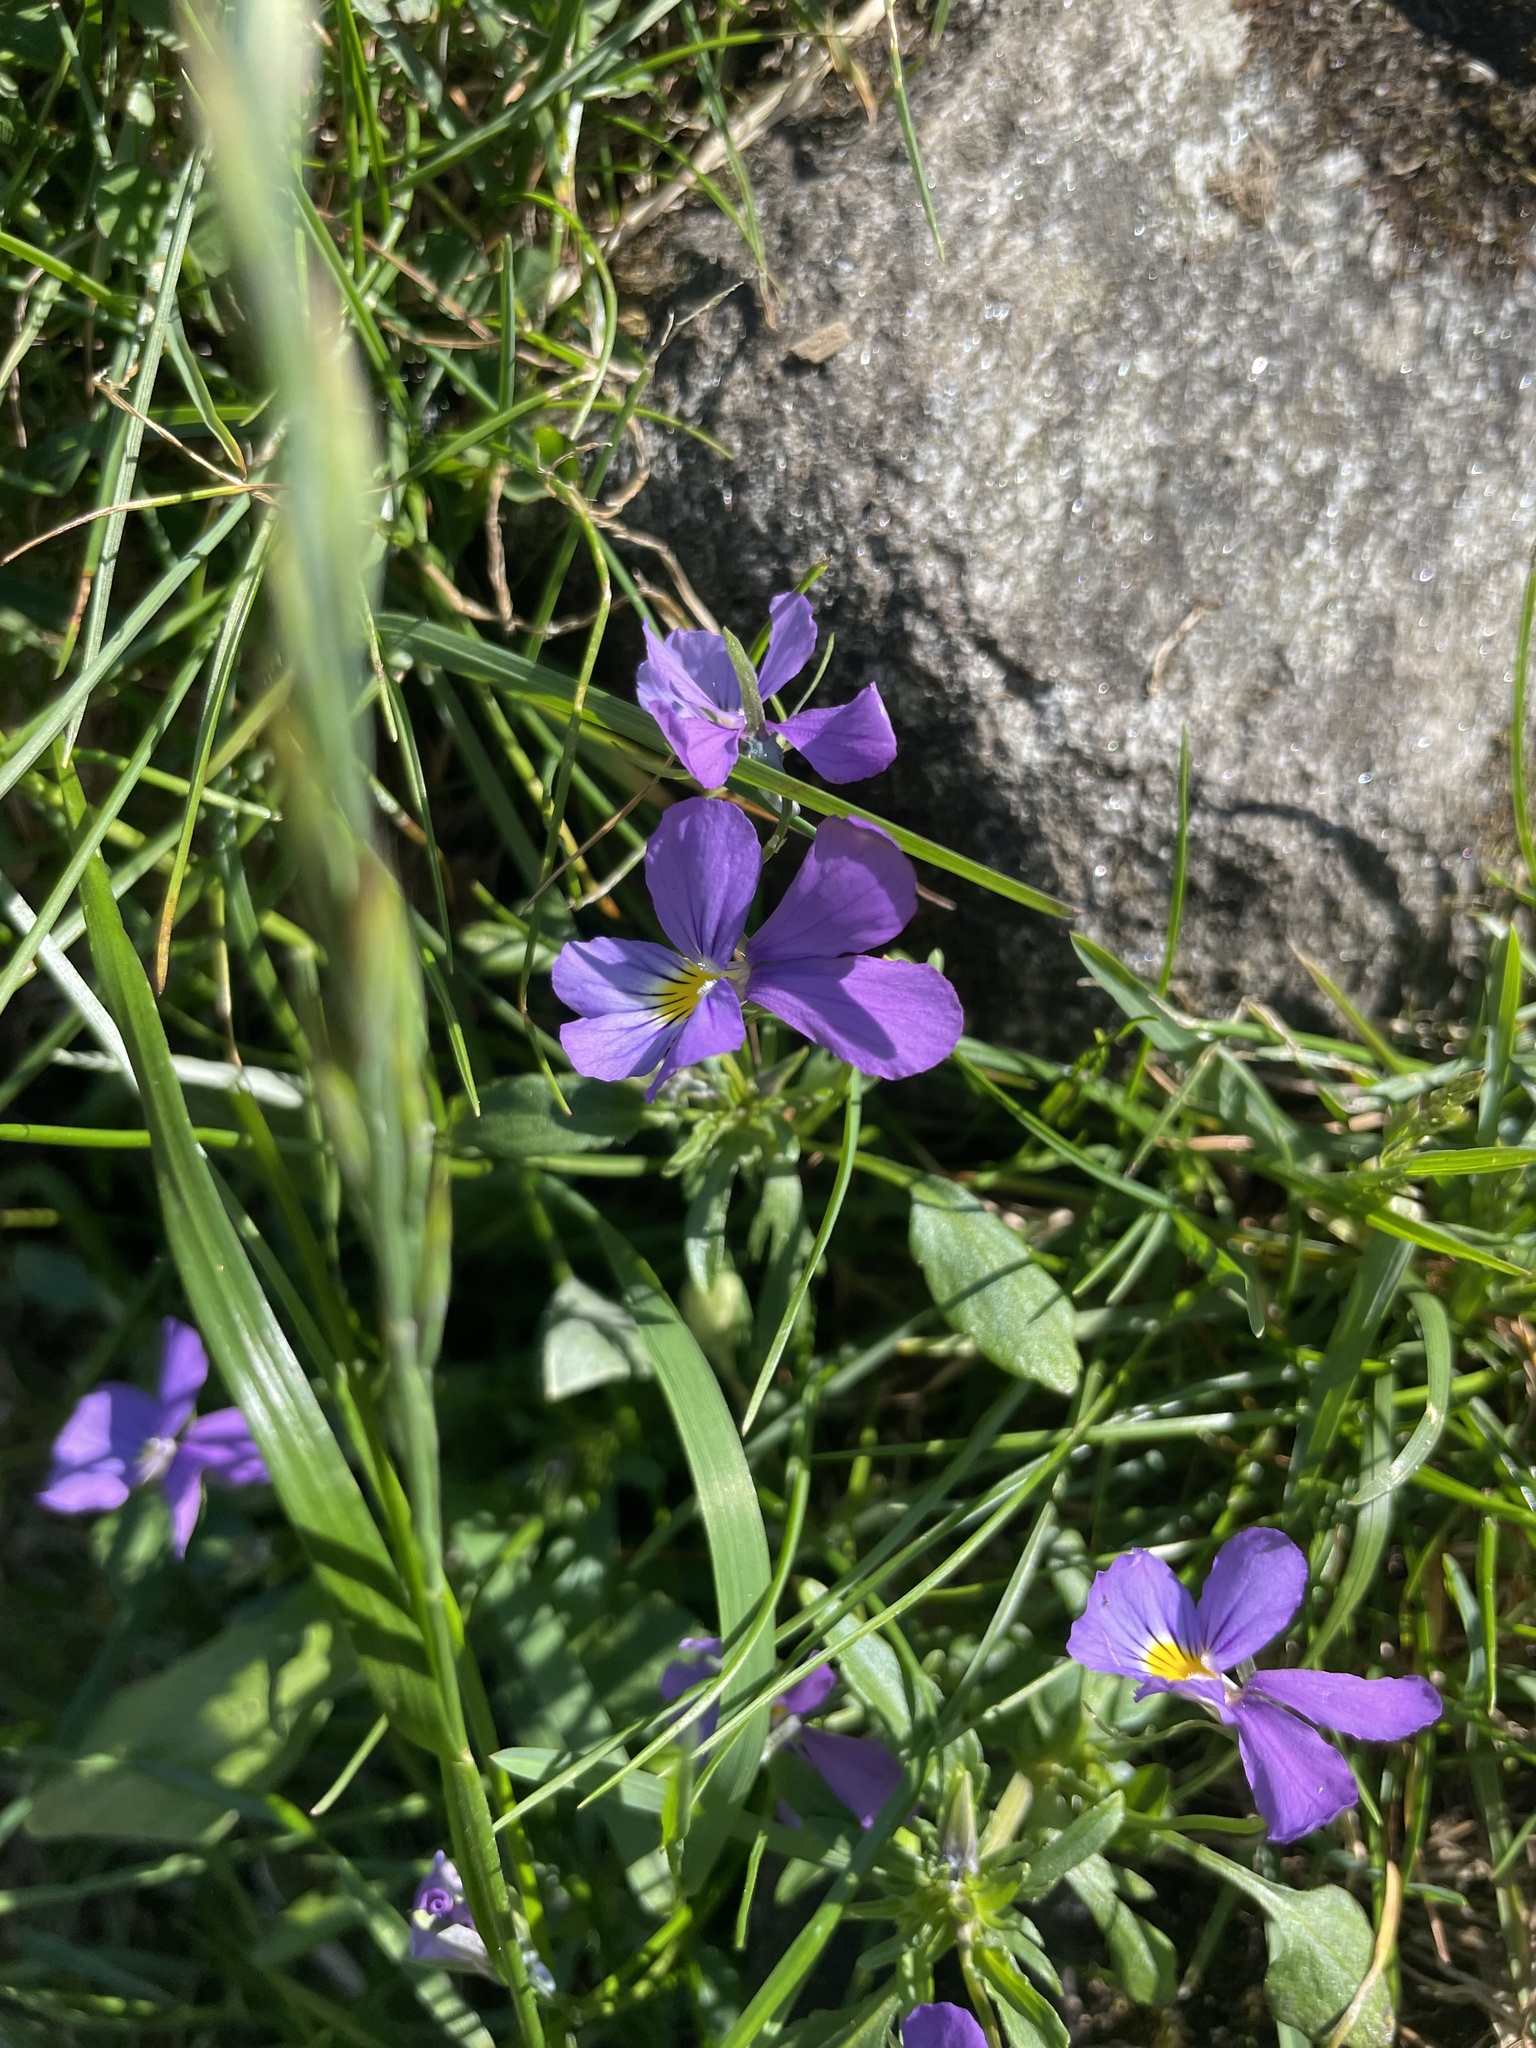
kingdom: Plantae
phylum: Tracheophyta
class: Magnoliopsida
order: Malpighiales
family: Violaceae
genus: Viola
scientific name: Viola tricolor
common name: Pansy
